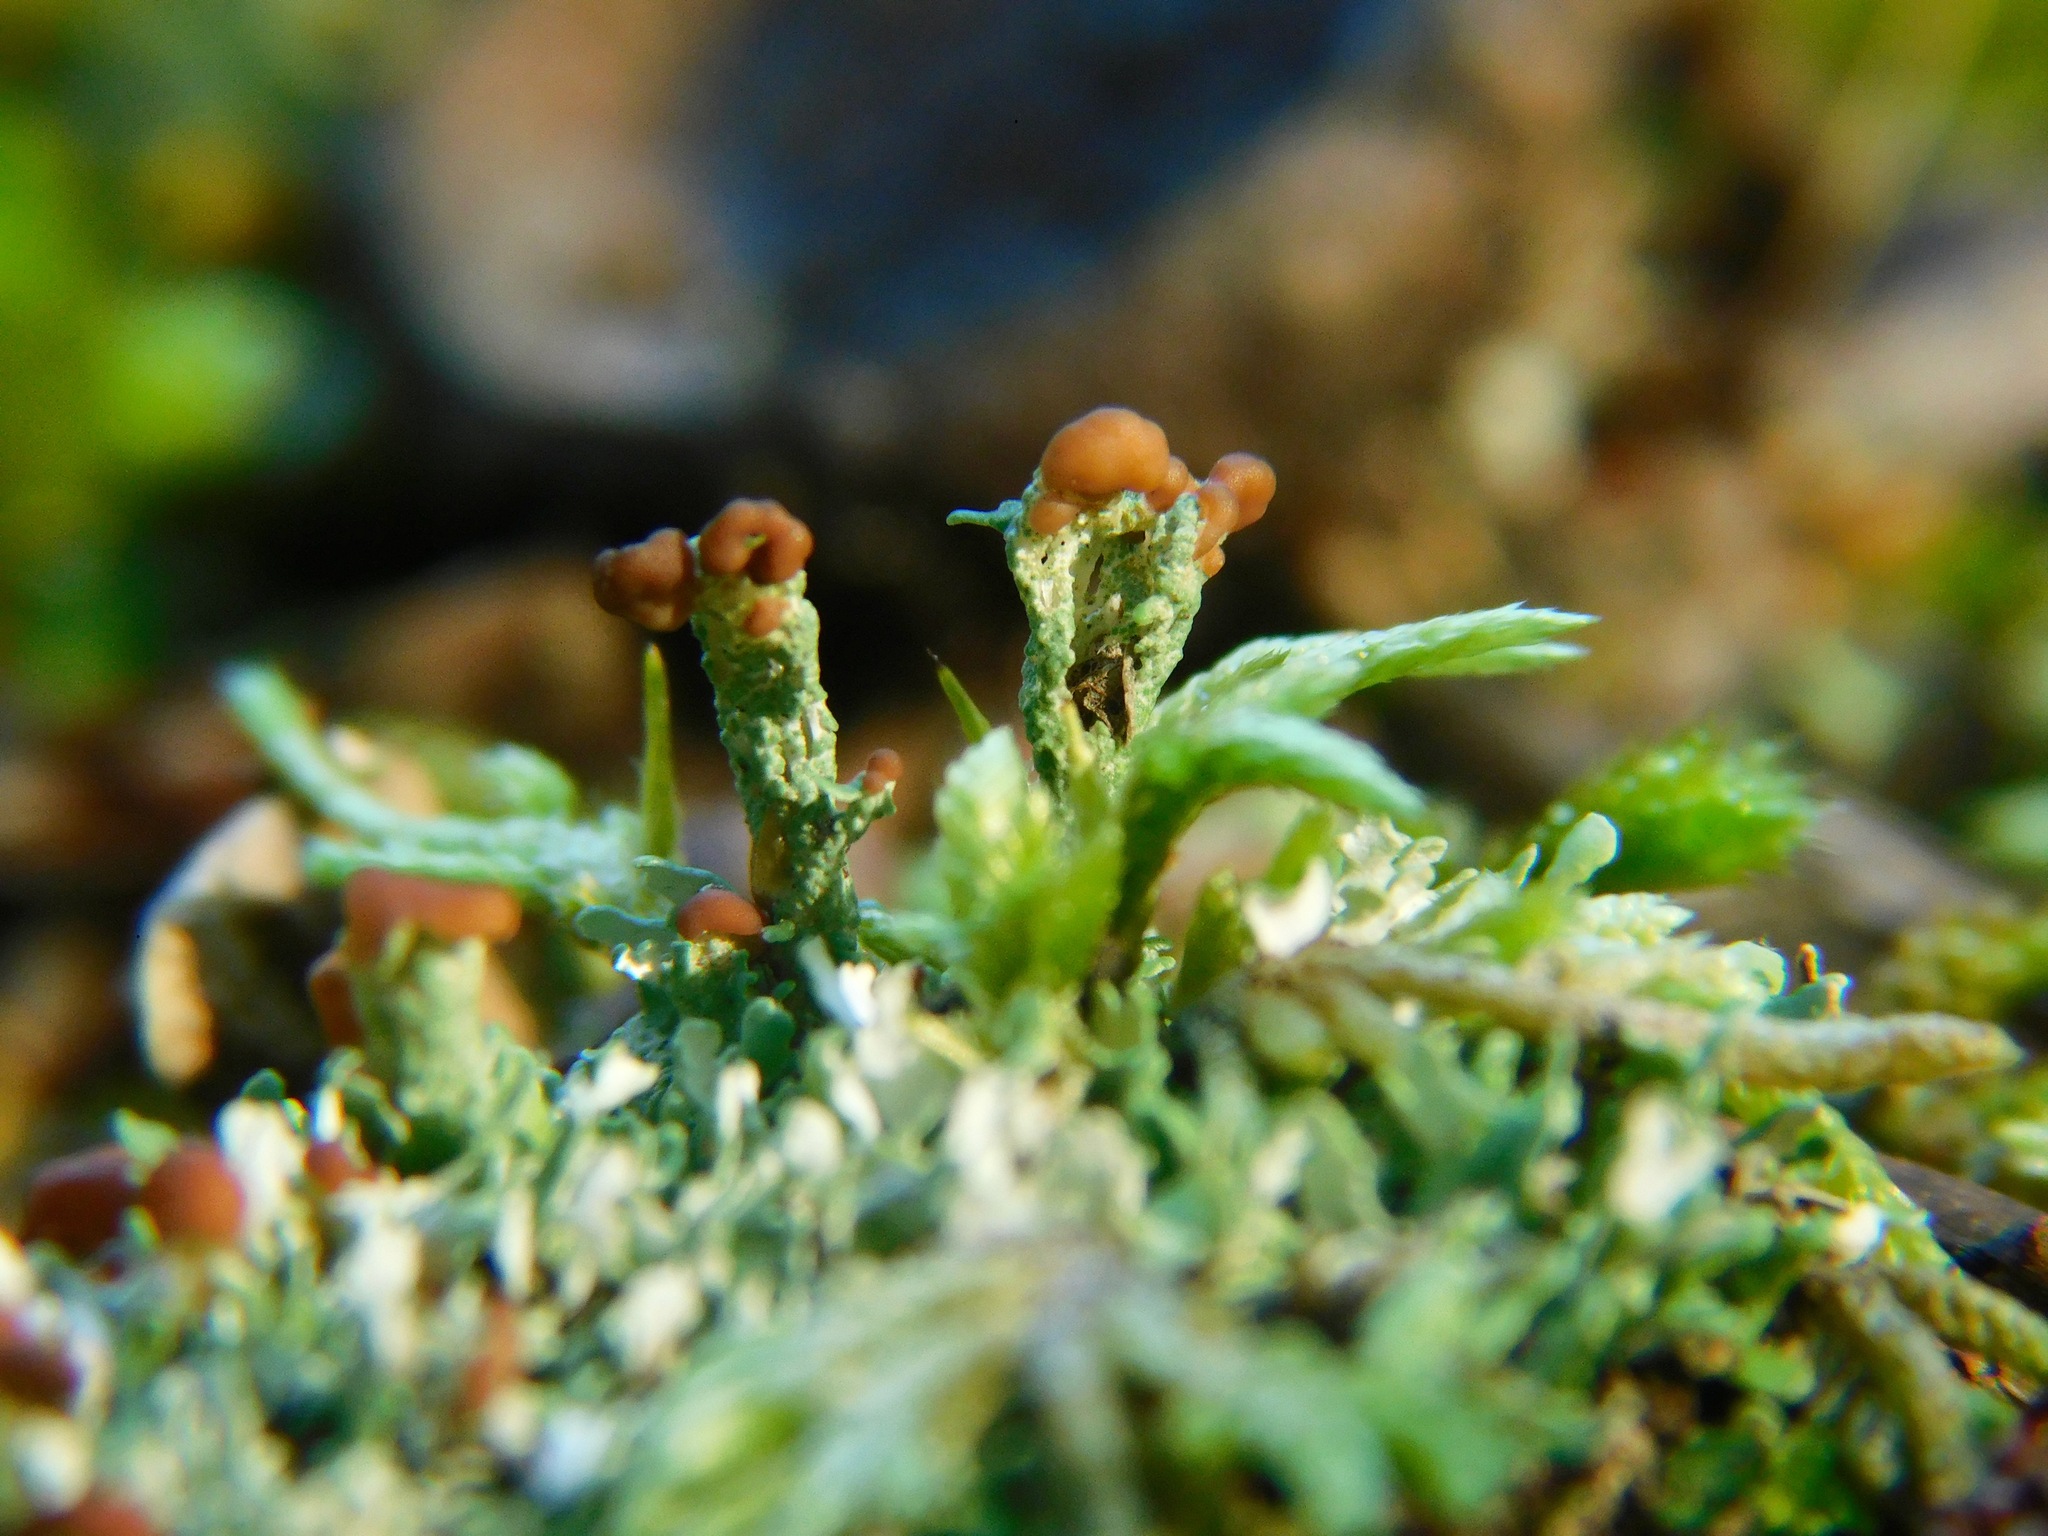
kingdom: Fungi
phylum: Ascomycota
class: Lecanoromycetes
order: Lecanorales
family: Cladoniaceae
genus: Cladonia
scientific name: Cladonia peziziformis
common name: Cup lichen
